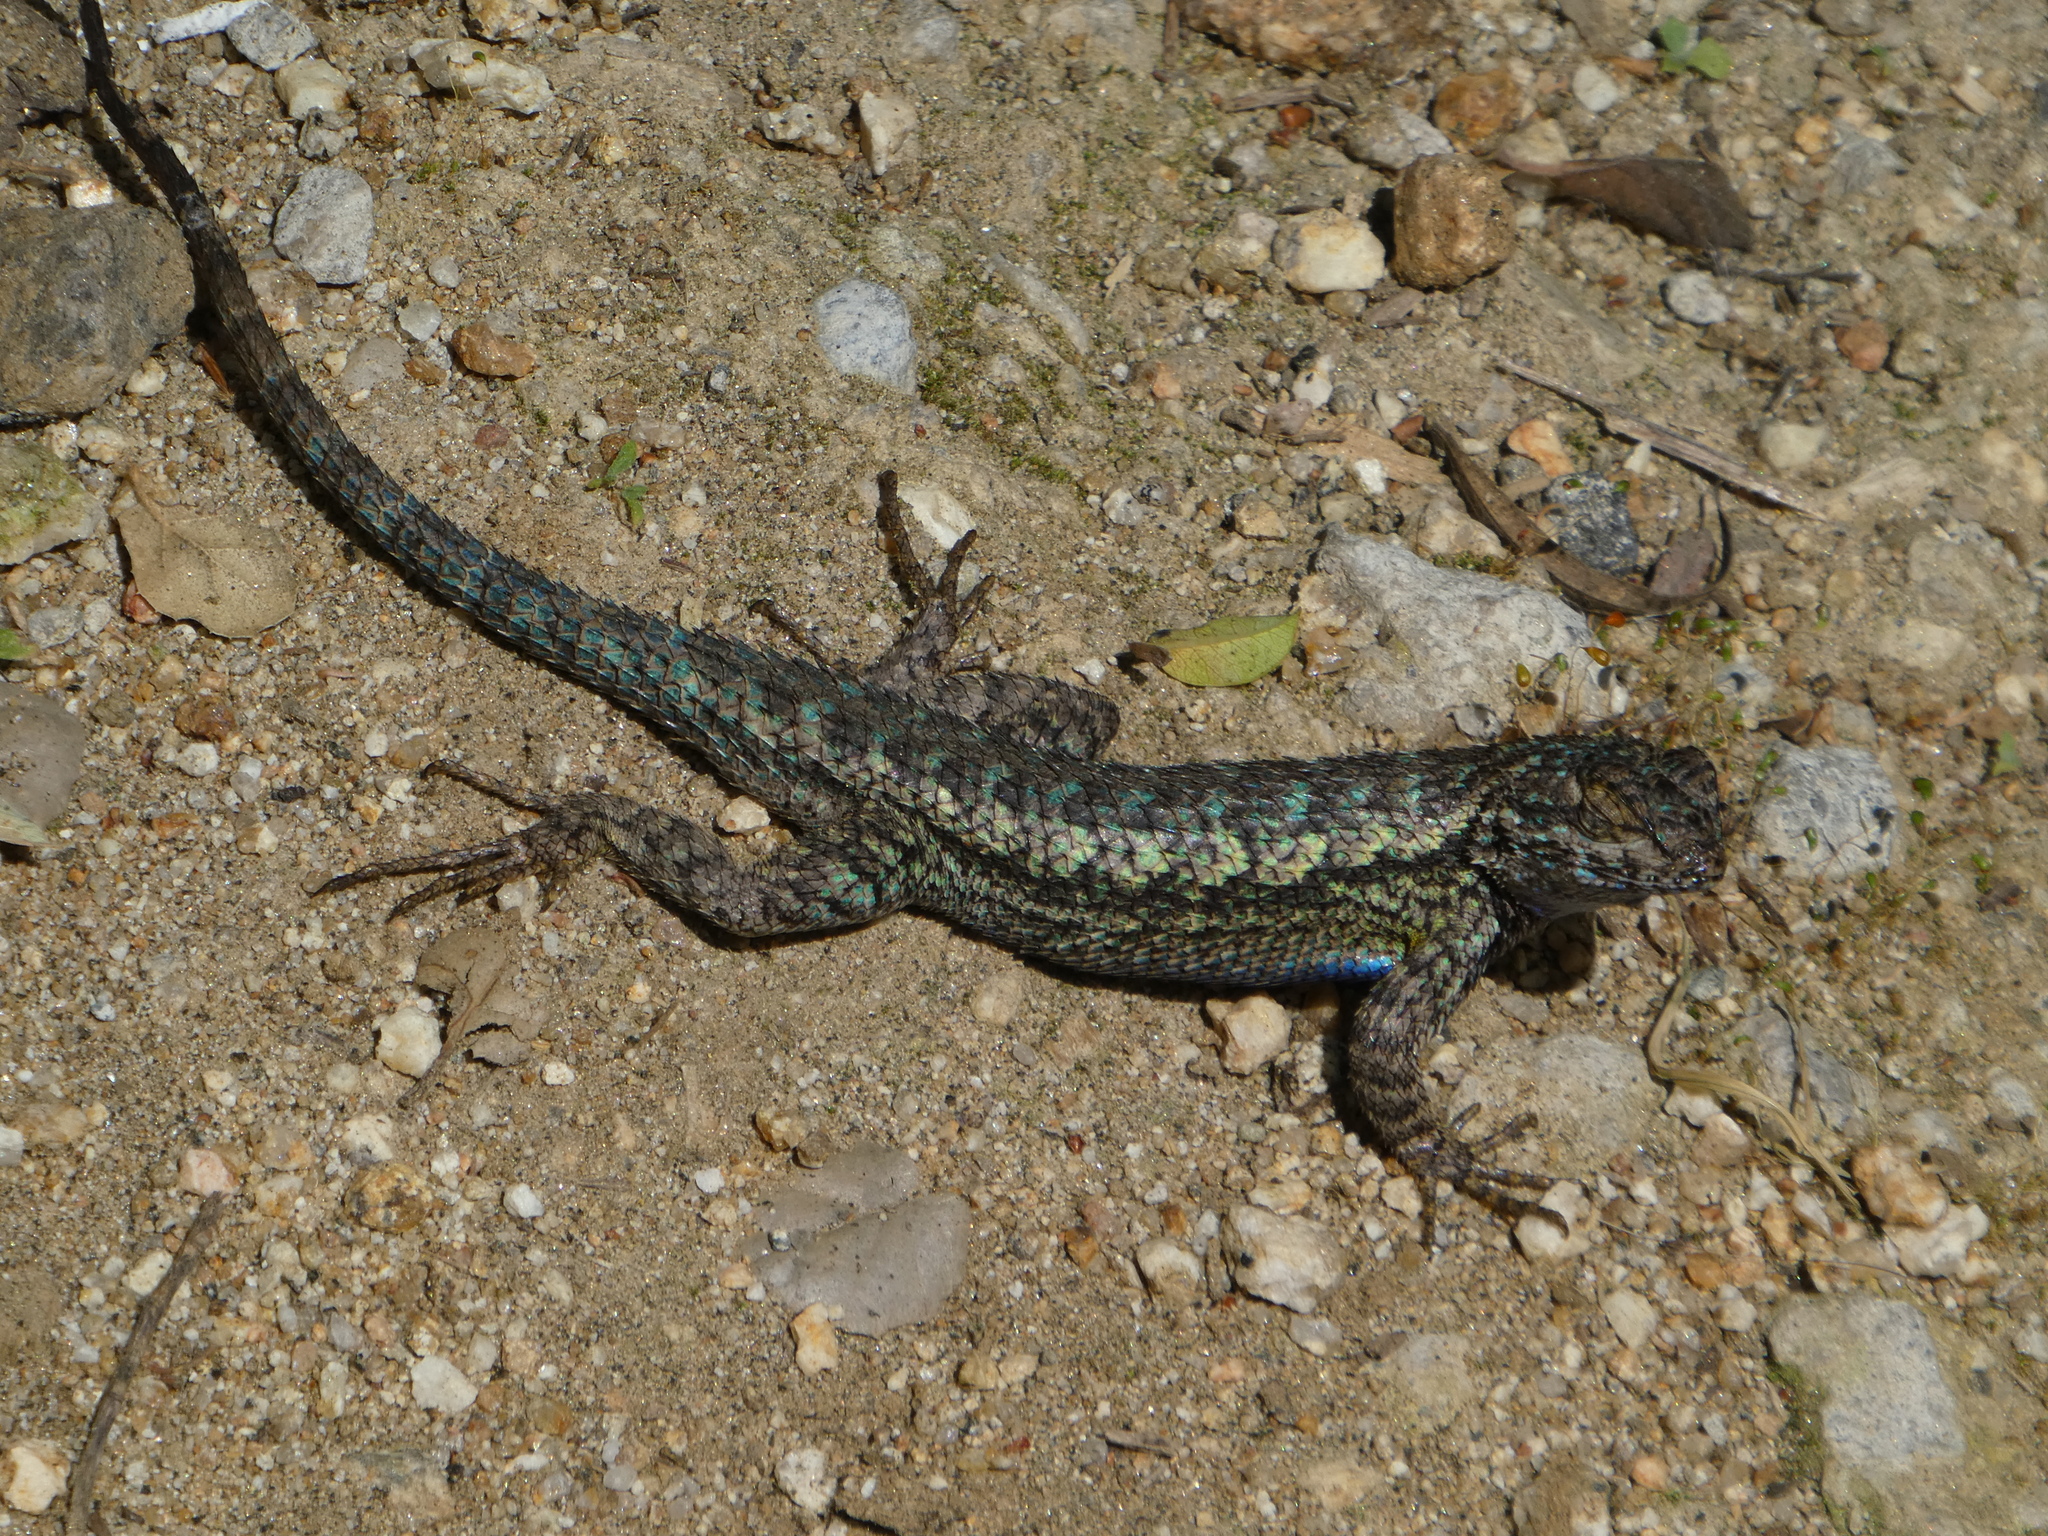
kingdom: Animalia
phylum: Chordata
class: Squamata
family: Phrynosomatidae
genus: Sceloporus
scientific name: Sceloporus occidentalis
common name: Western fence lizard
